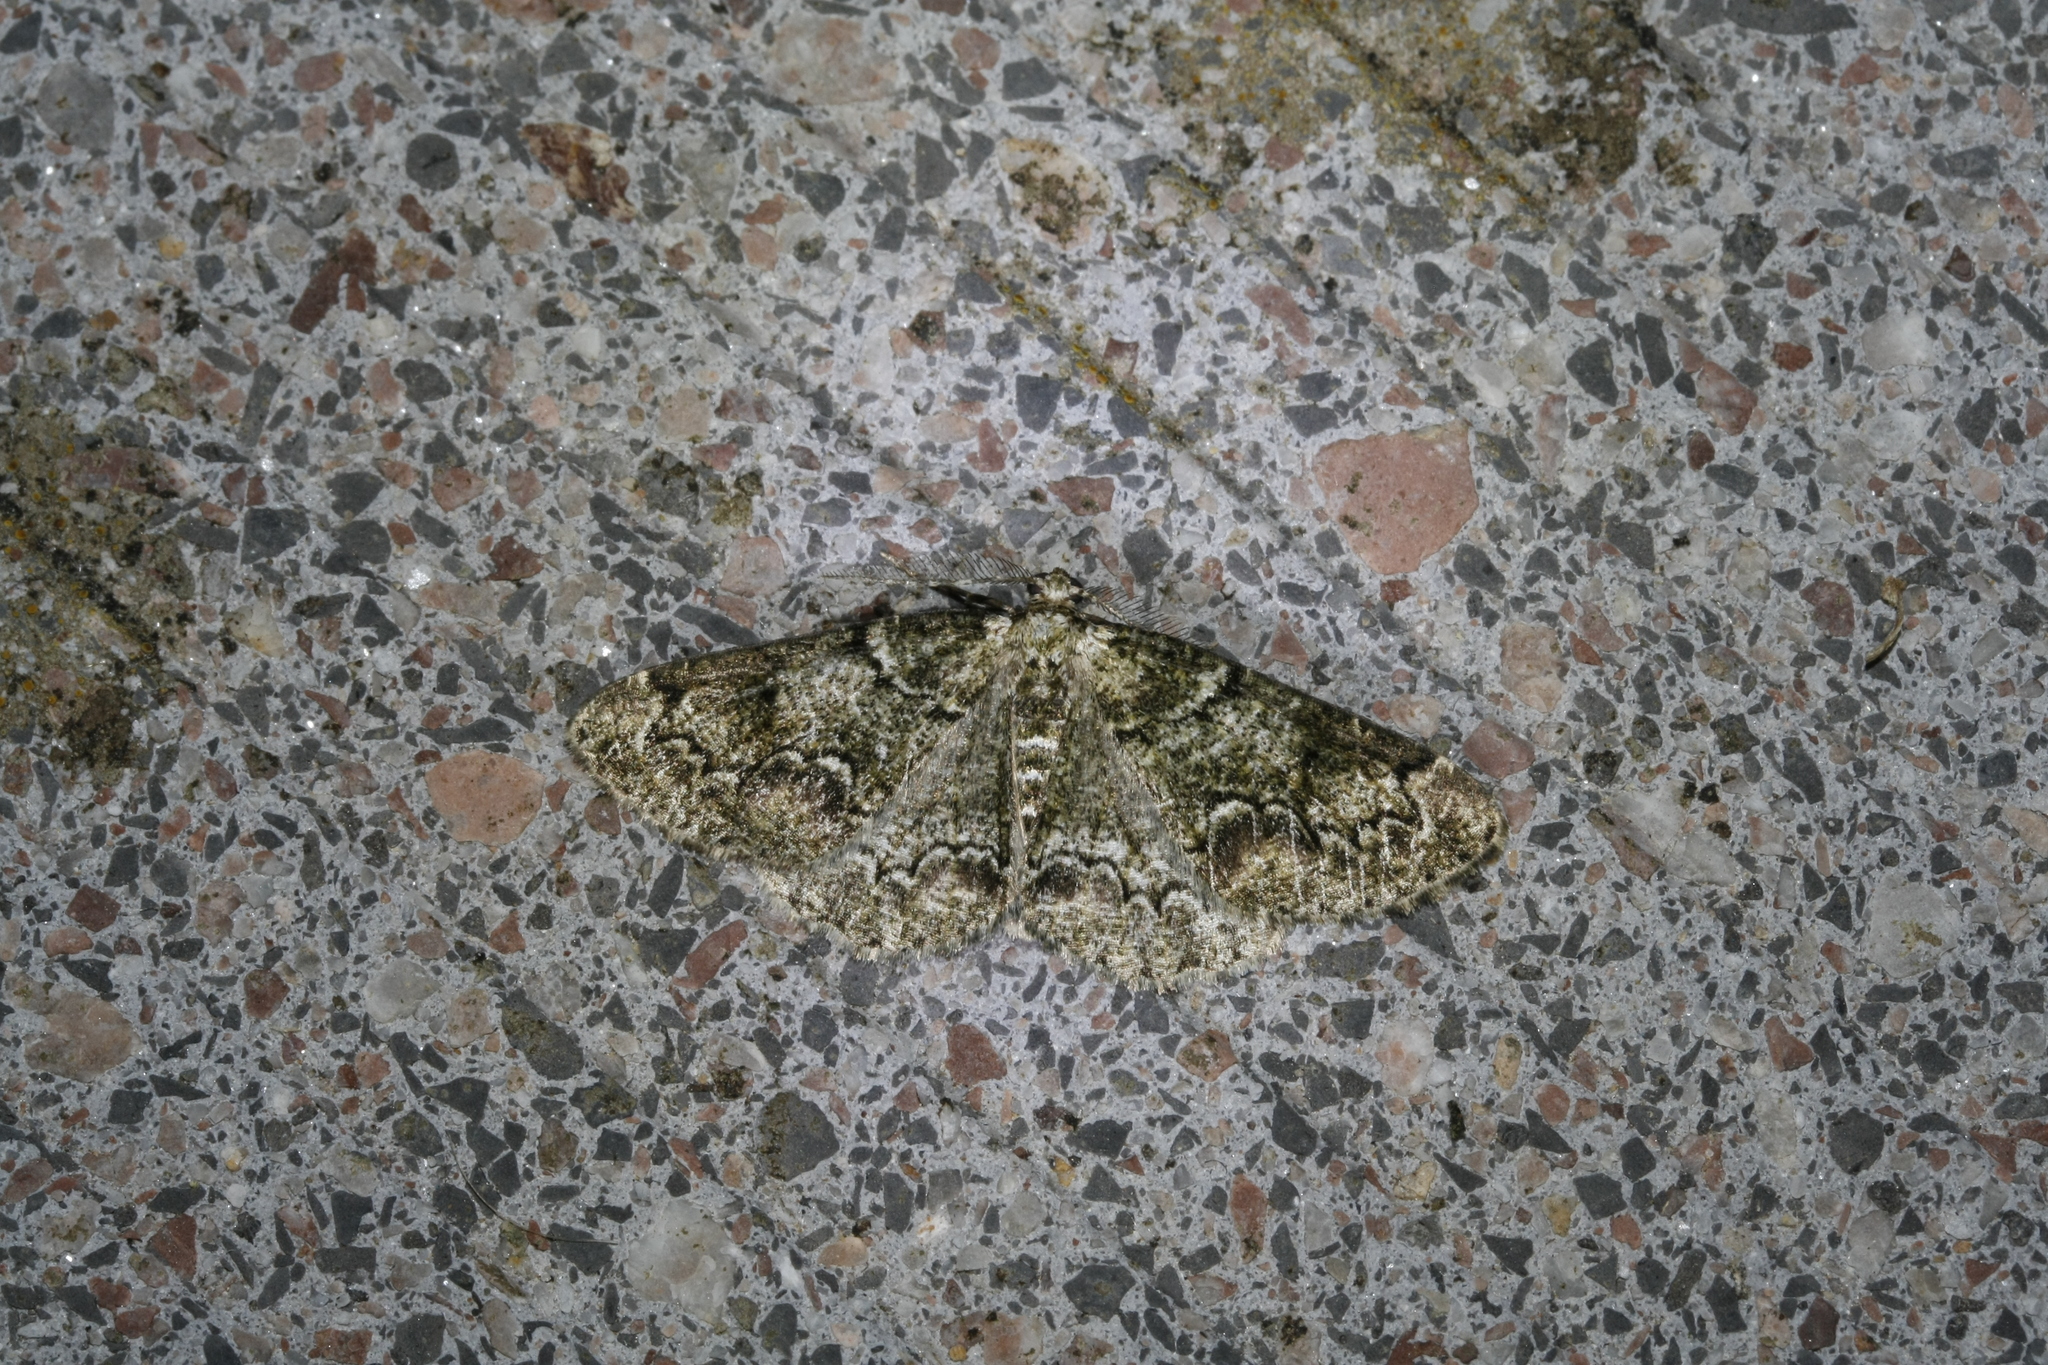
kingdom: Animalia
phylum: Arthropoda
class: Insecta
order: Lepidoptera
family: Geometridae
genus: Cleorodes
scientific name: Cleorodes lichenaria
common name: Brussels lace
